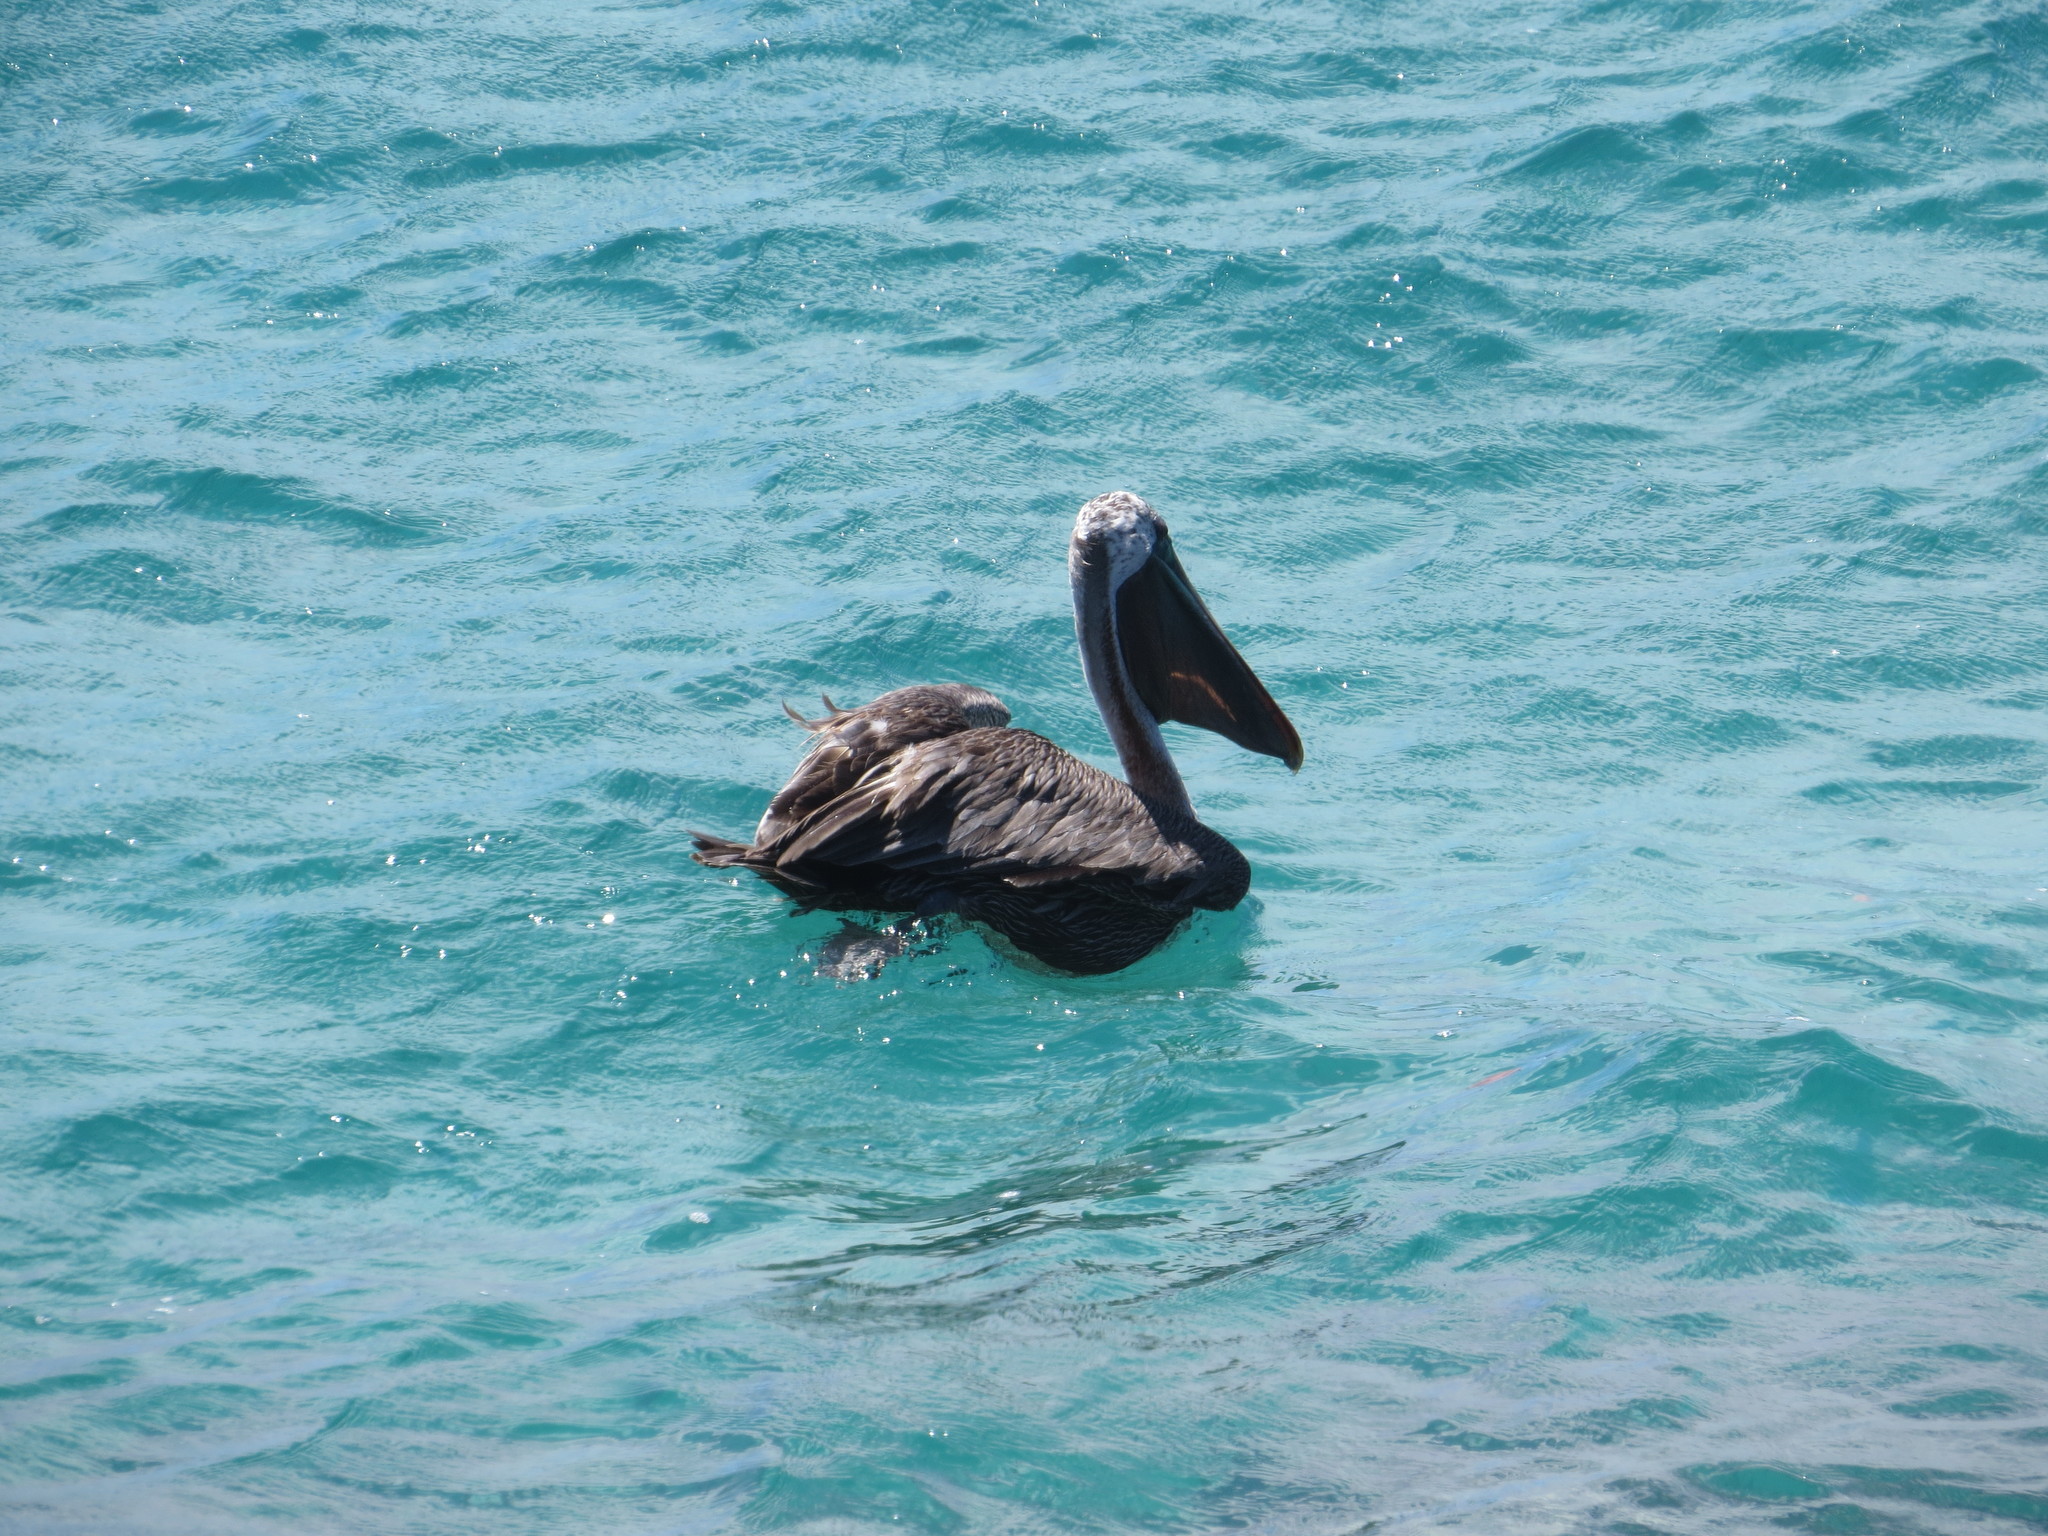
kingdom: Animalia
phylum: Chordata
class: Aves
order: Pelecaniformes
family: Pelecanidae
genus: Pelecanus
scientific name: Pelecanus occidentalis
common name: Brown pelican
